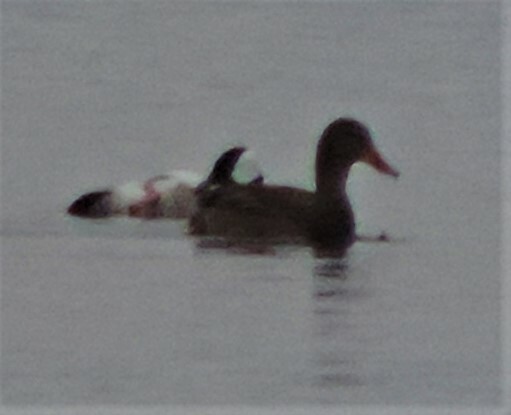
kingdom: Animalia
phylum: Chordata
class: Aves
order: Anseriformes
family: Anatidae
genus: Anas
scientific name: Anas platyrhynchos
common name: Mallard
